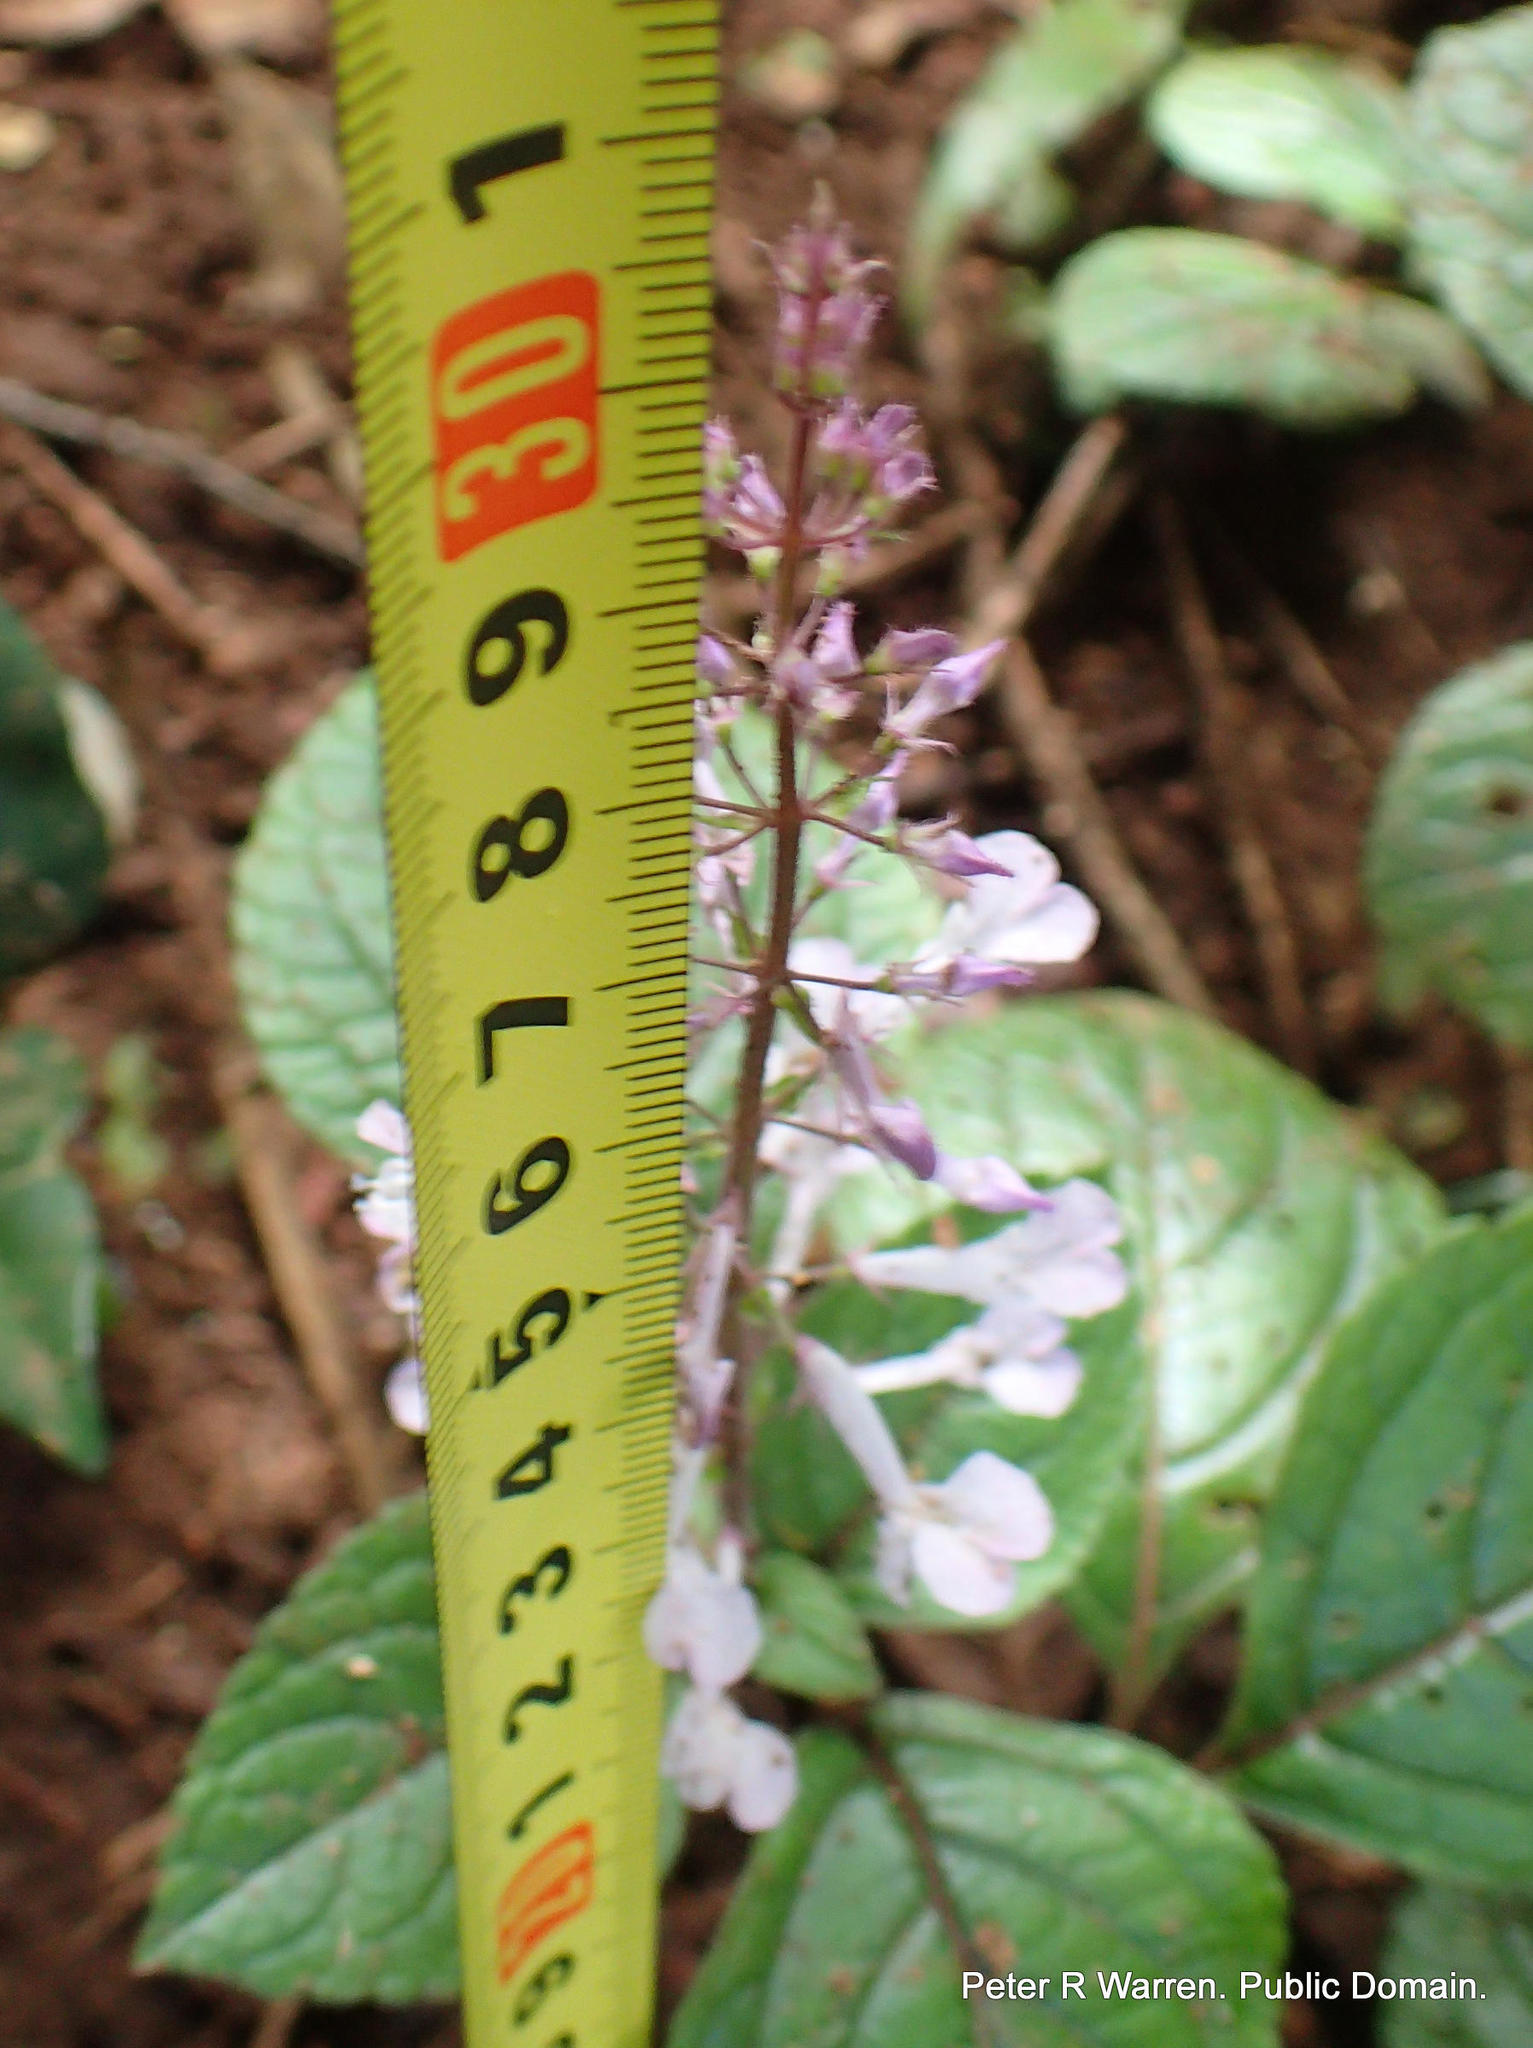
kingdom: Plantae
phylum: Tracheophyta
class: Magnoliopsida
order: Lamiales
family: Lamiaceae
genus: Plectranthus
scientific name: Plectranthus ciliatus
